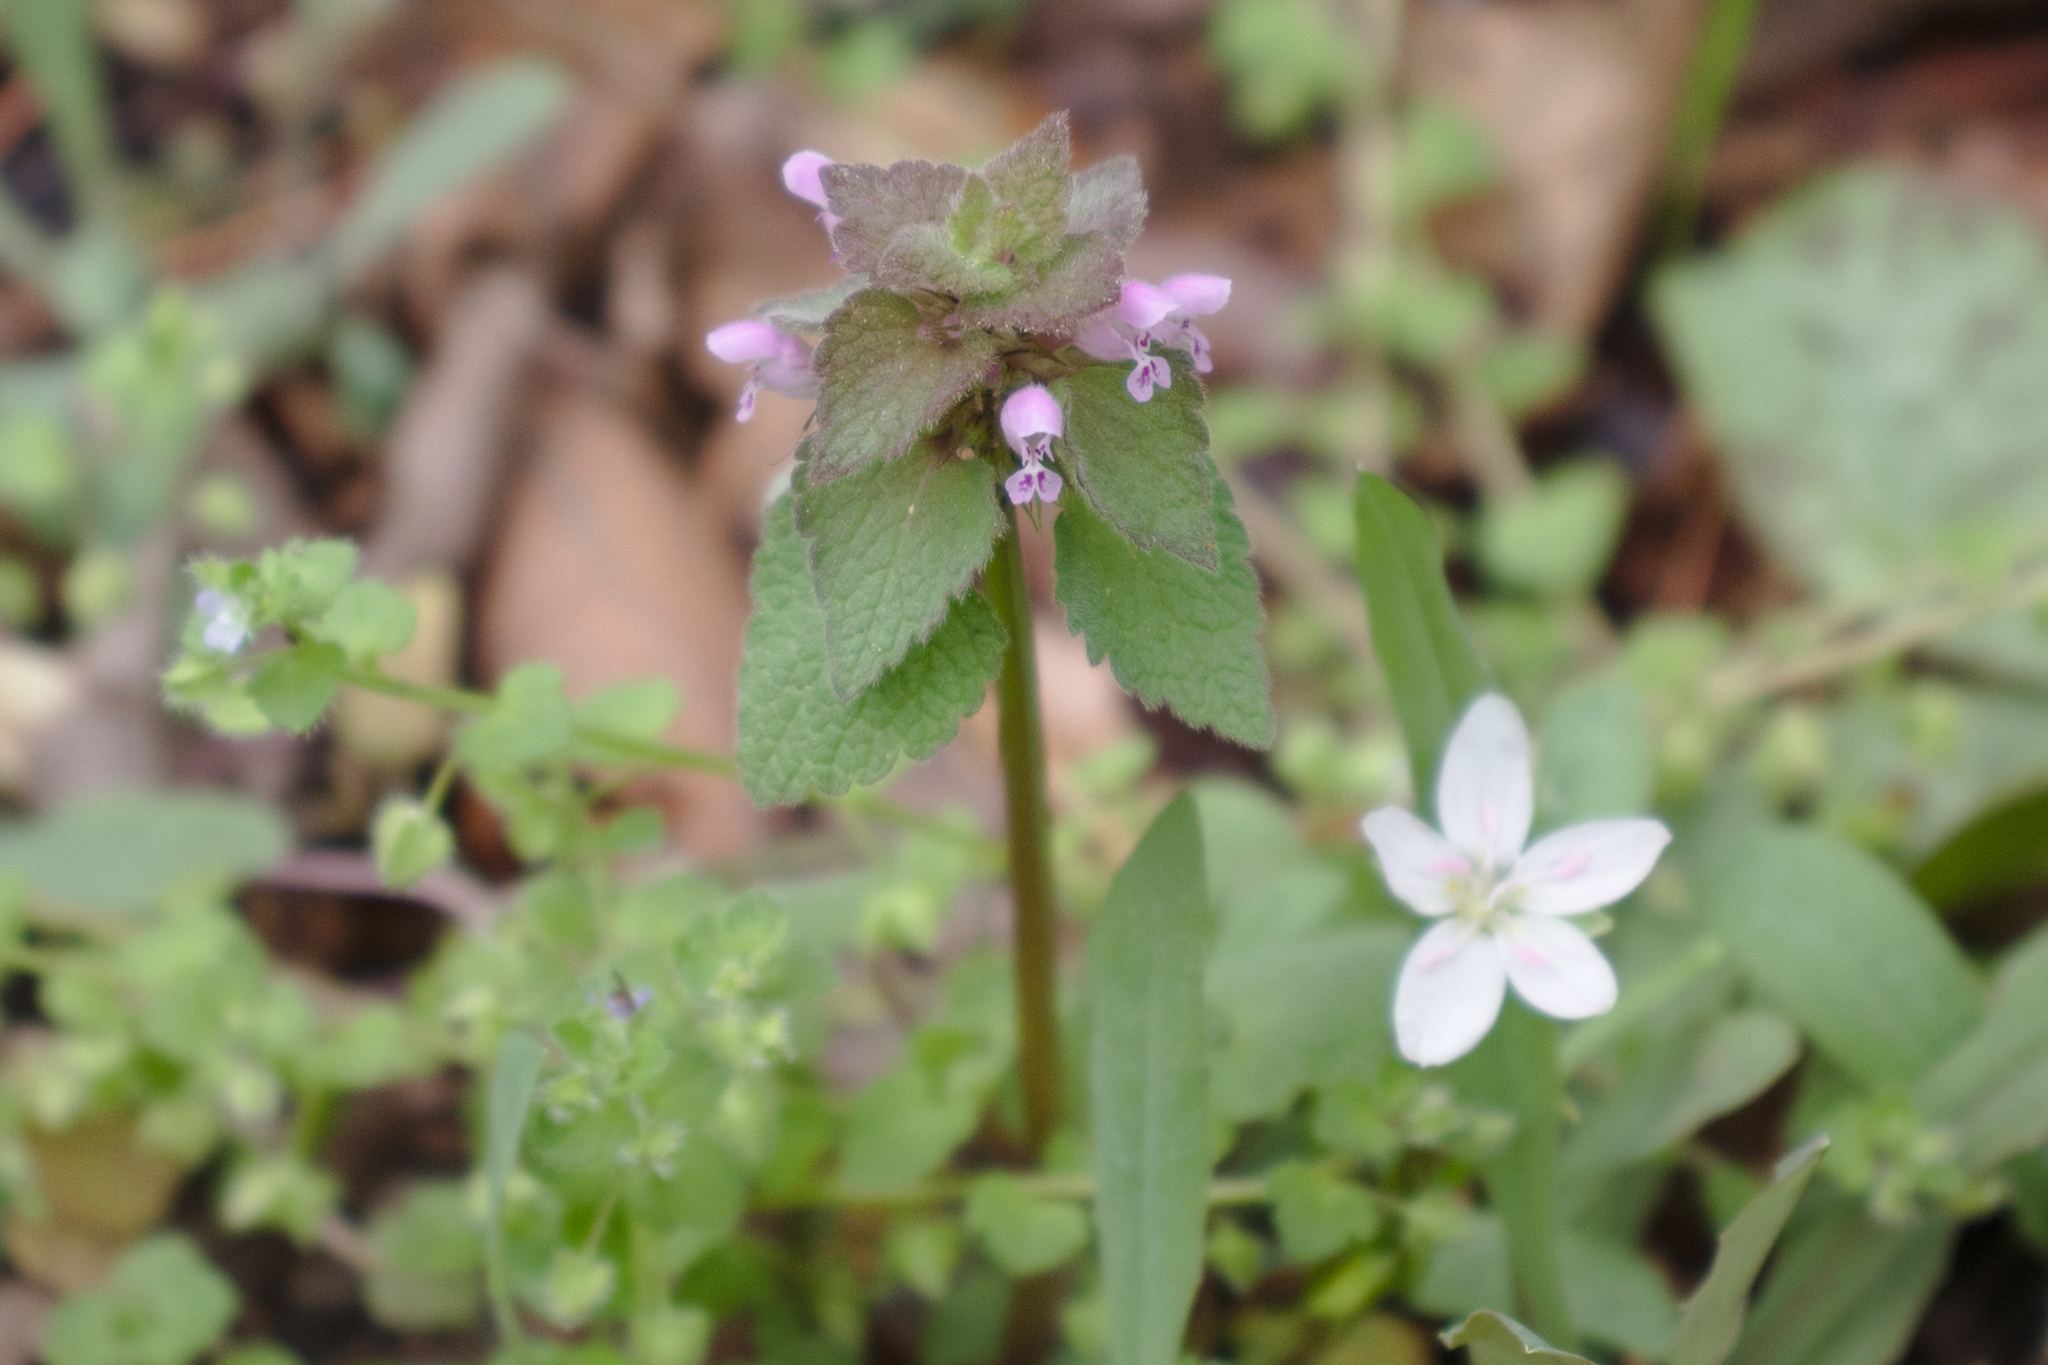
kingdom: Plantae
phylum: Tracheophyta
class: Magnoliopsida
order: Lamiales
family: Lamiaceae
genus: Lamium
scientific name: Lamium purpureum
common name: Red dead-nettle
